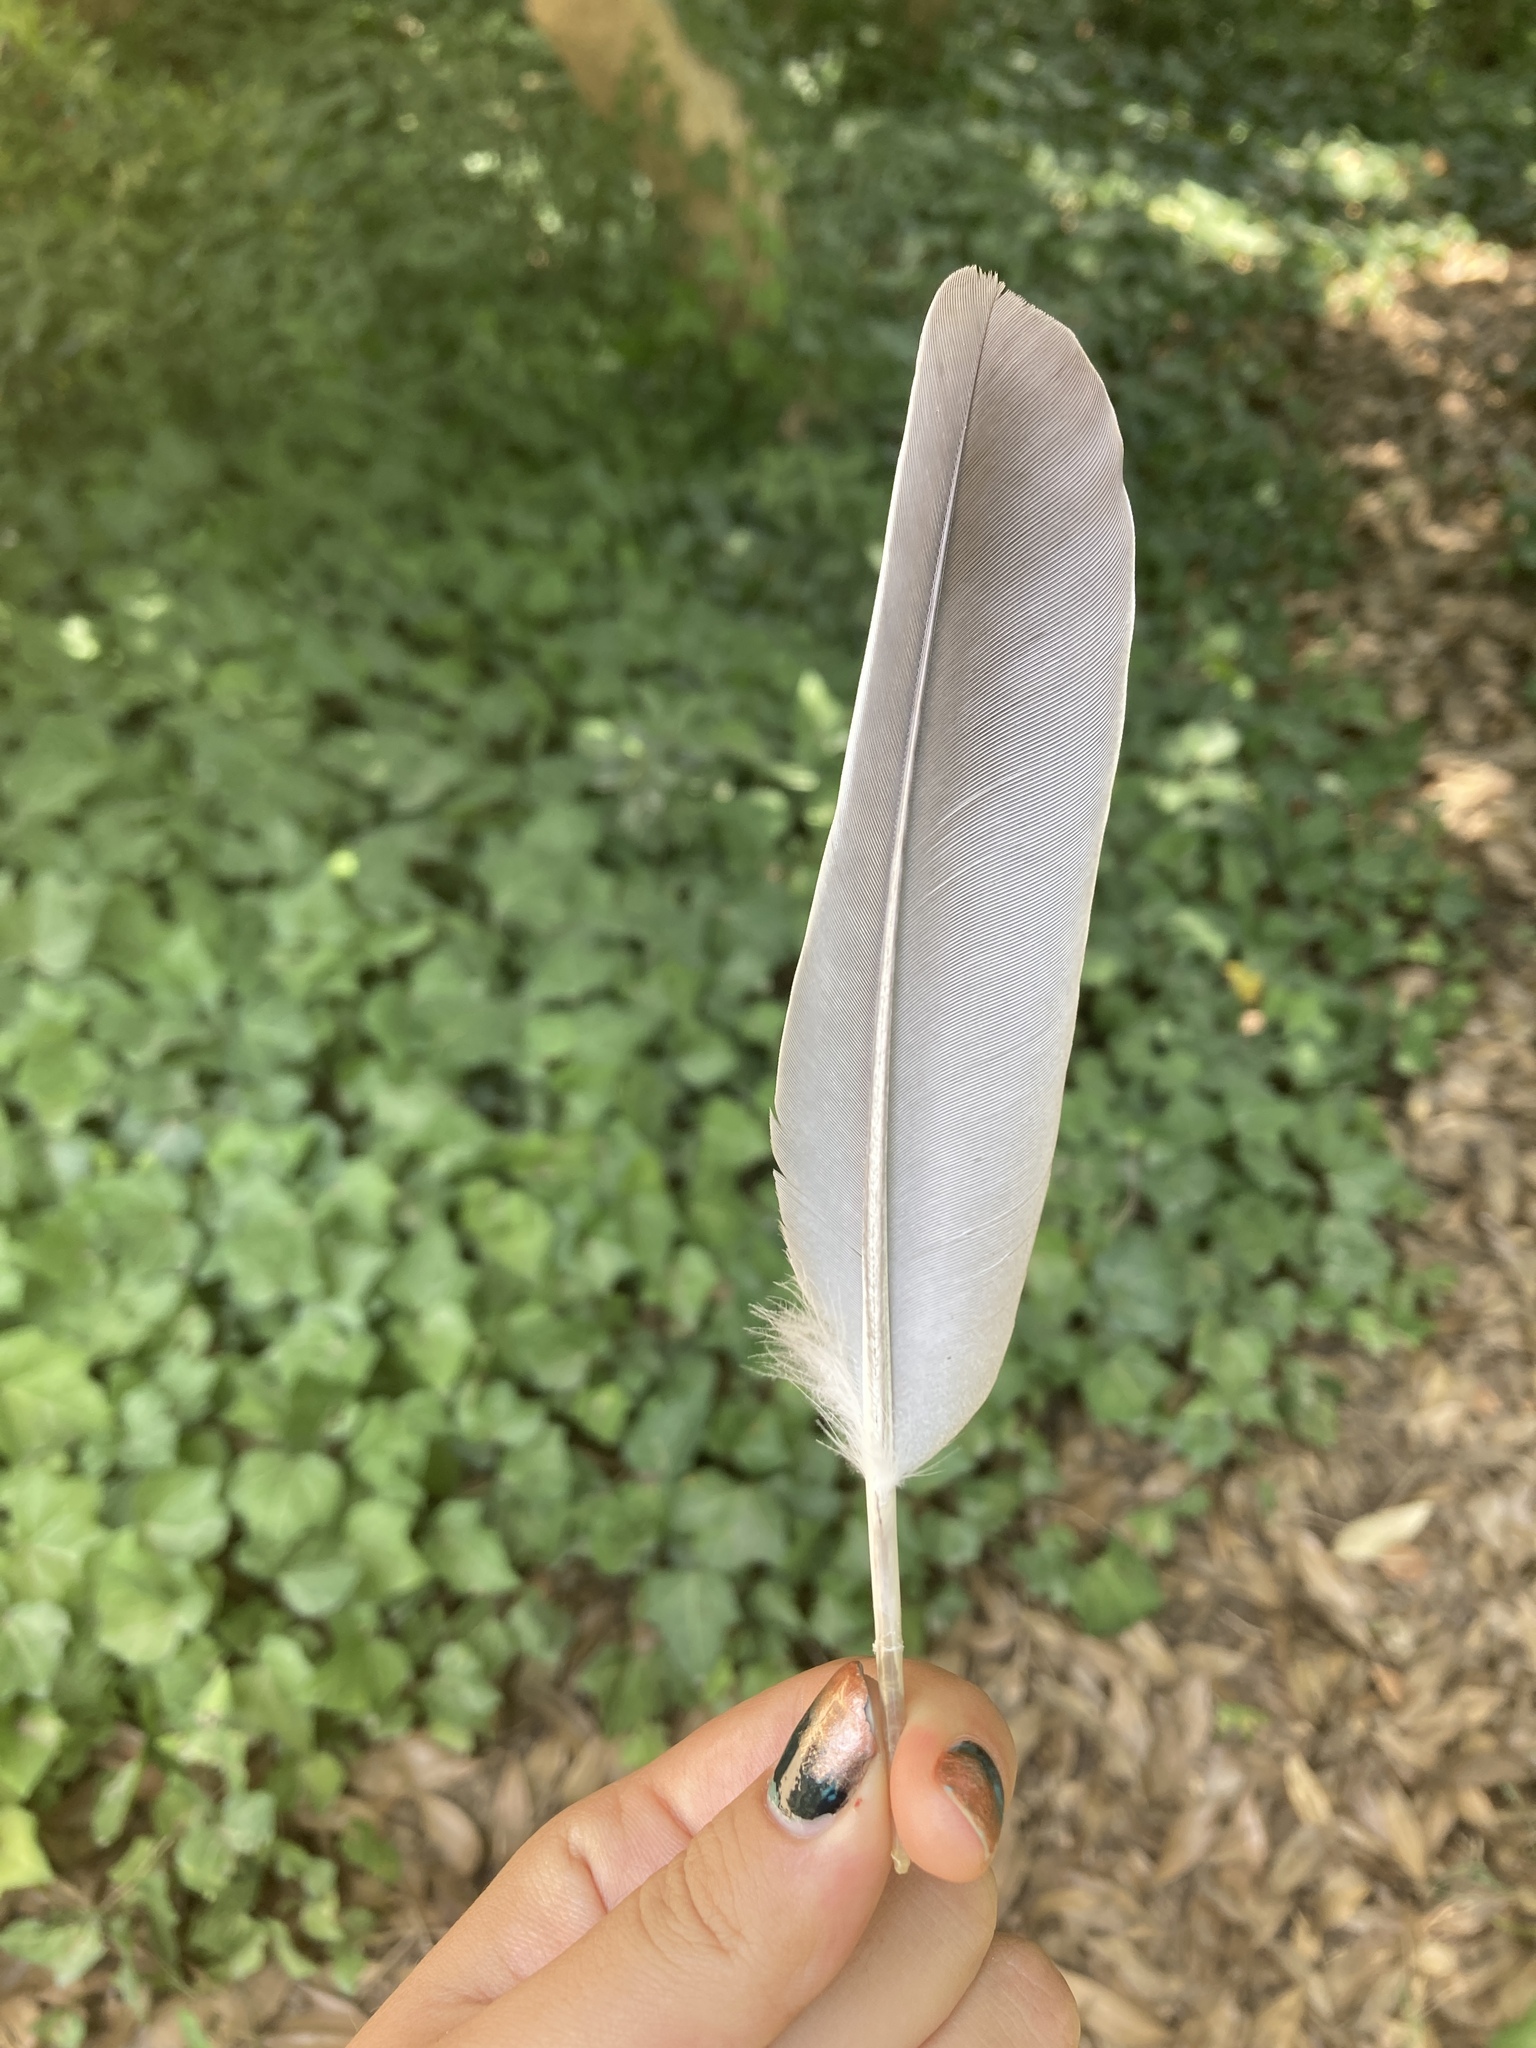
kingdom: Animalia
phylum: Chordata
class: Aves
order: Columbiformes
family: Columbidae
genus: Columba
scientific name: Columba palumbus
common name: Common wood pigeon
